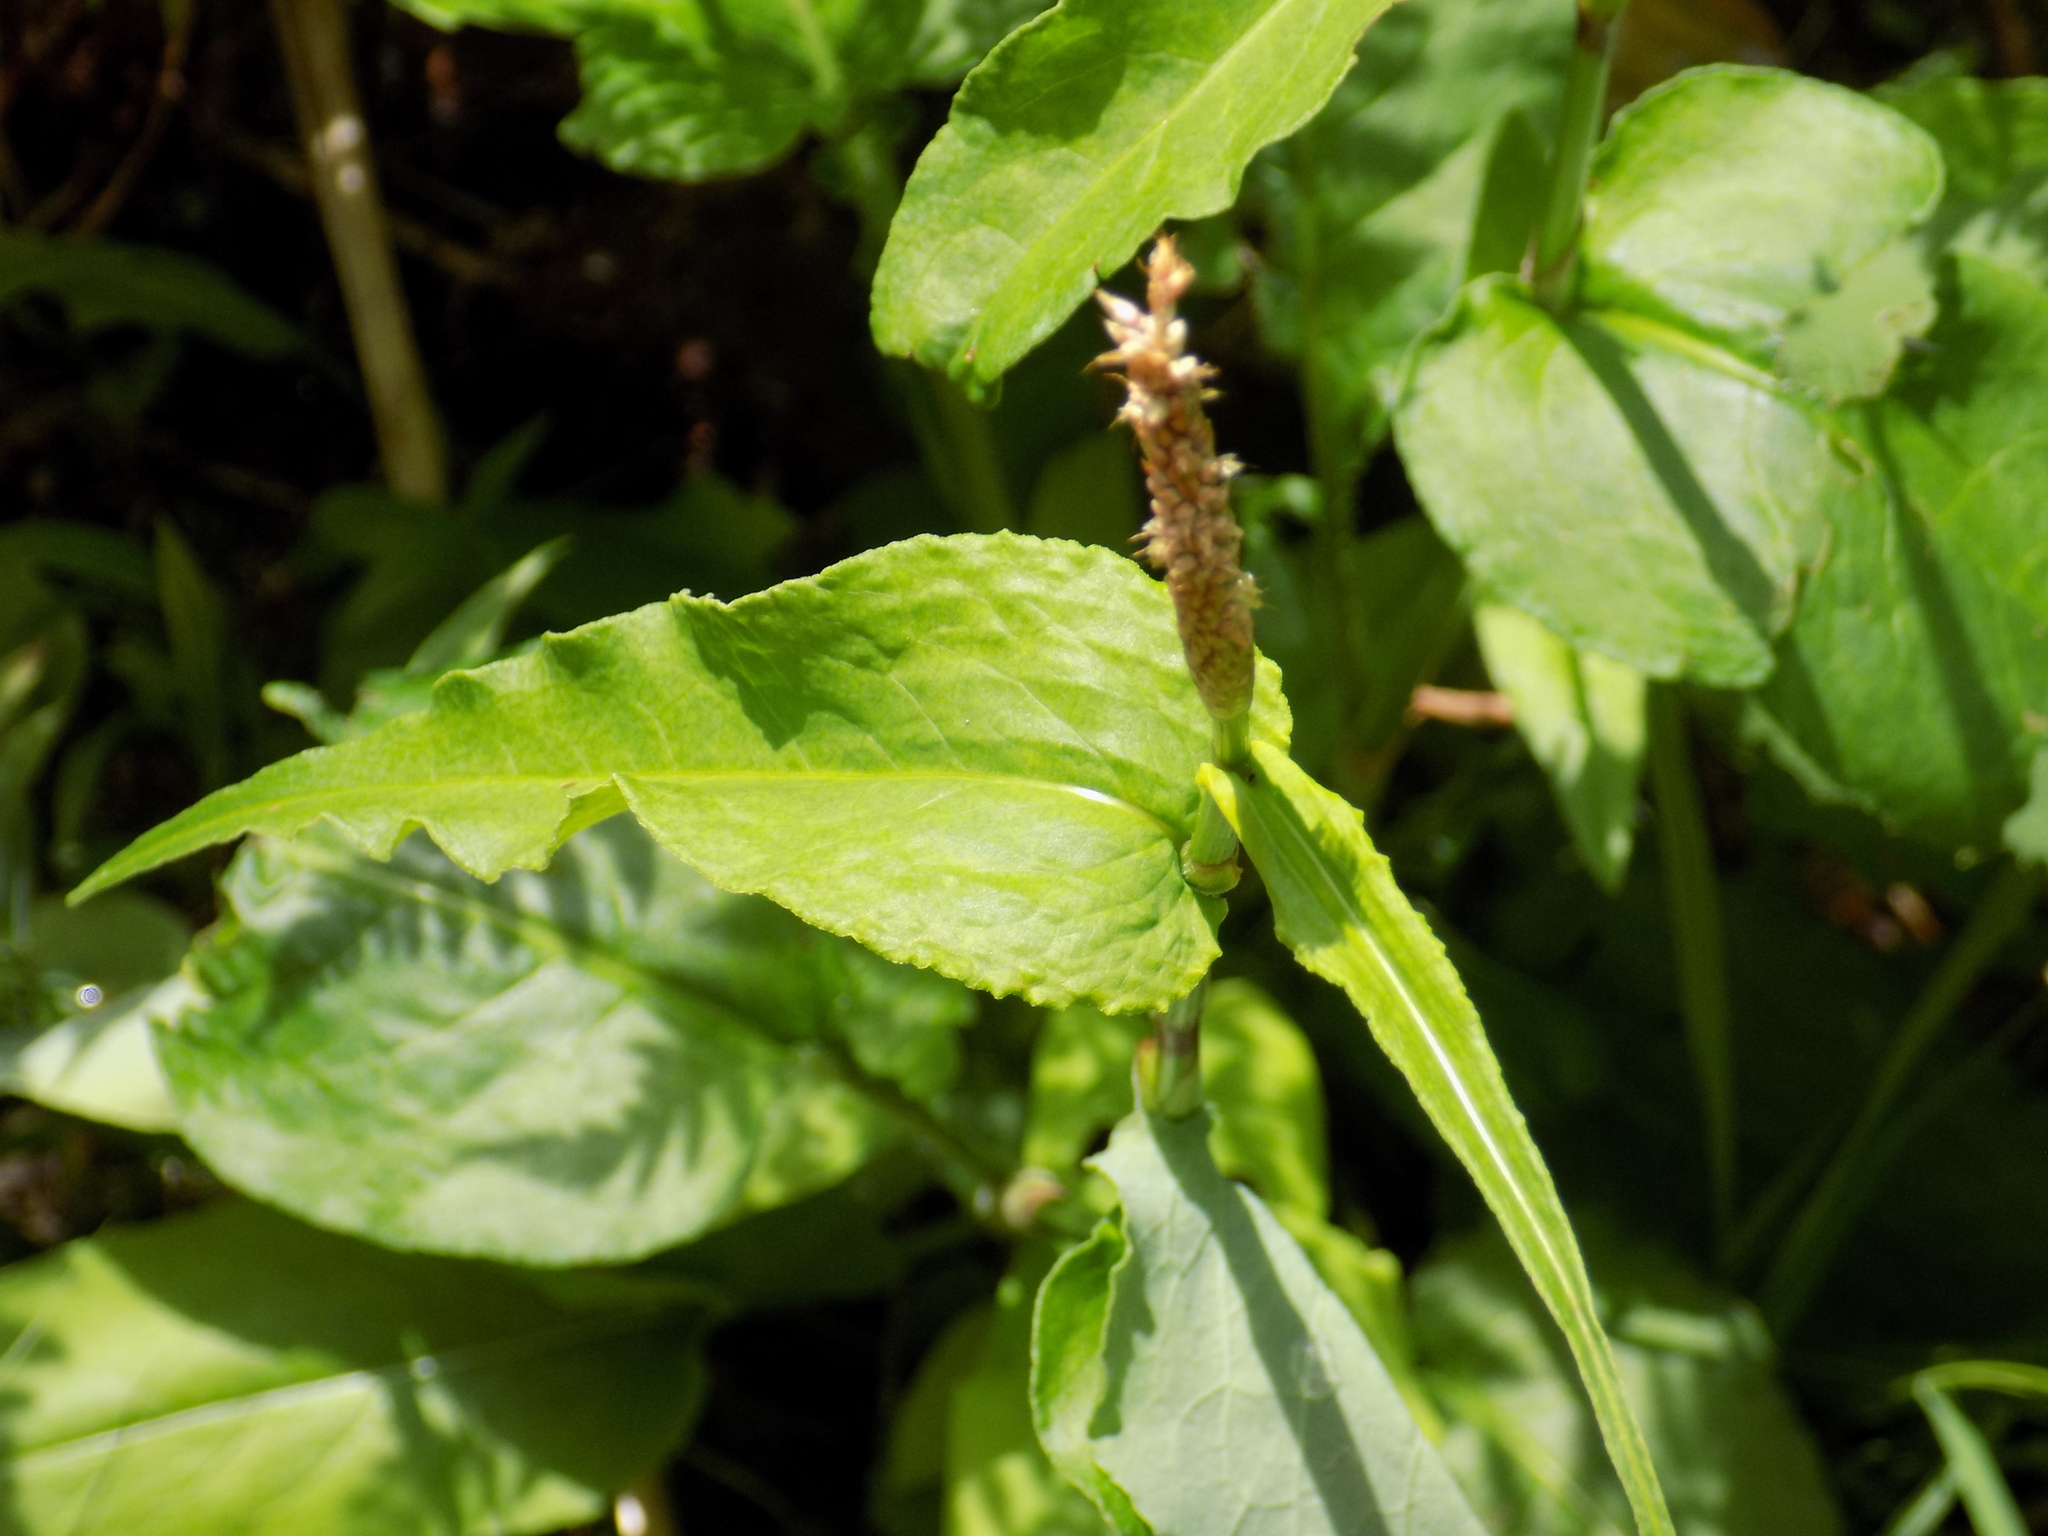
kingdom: Plantae
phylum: Tracheophyta
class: Magnoliopsida
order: Caryophyllales
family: Polygonaceae
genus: Bistorta
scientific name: Bistorta officinalis
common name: Common bistort
